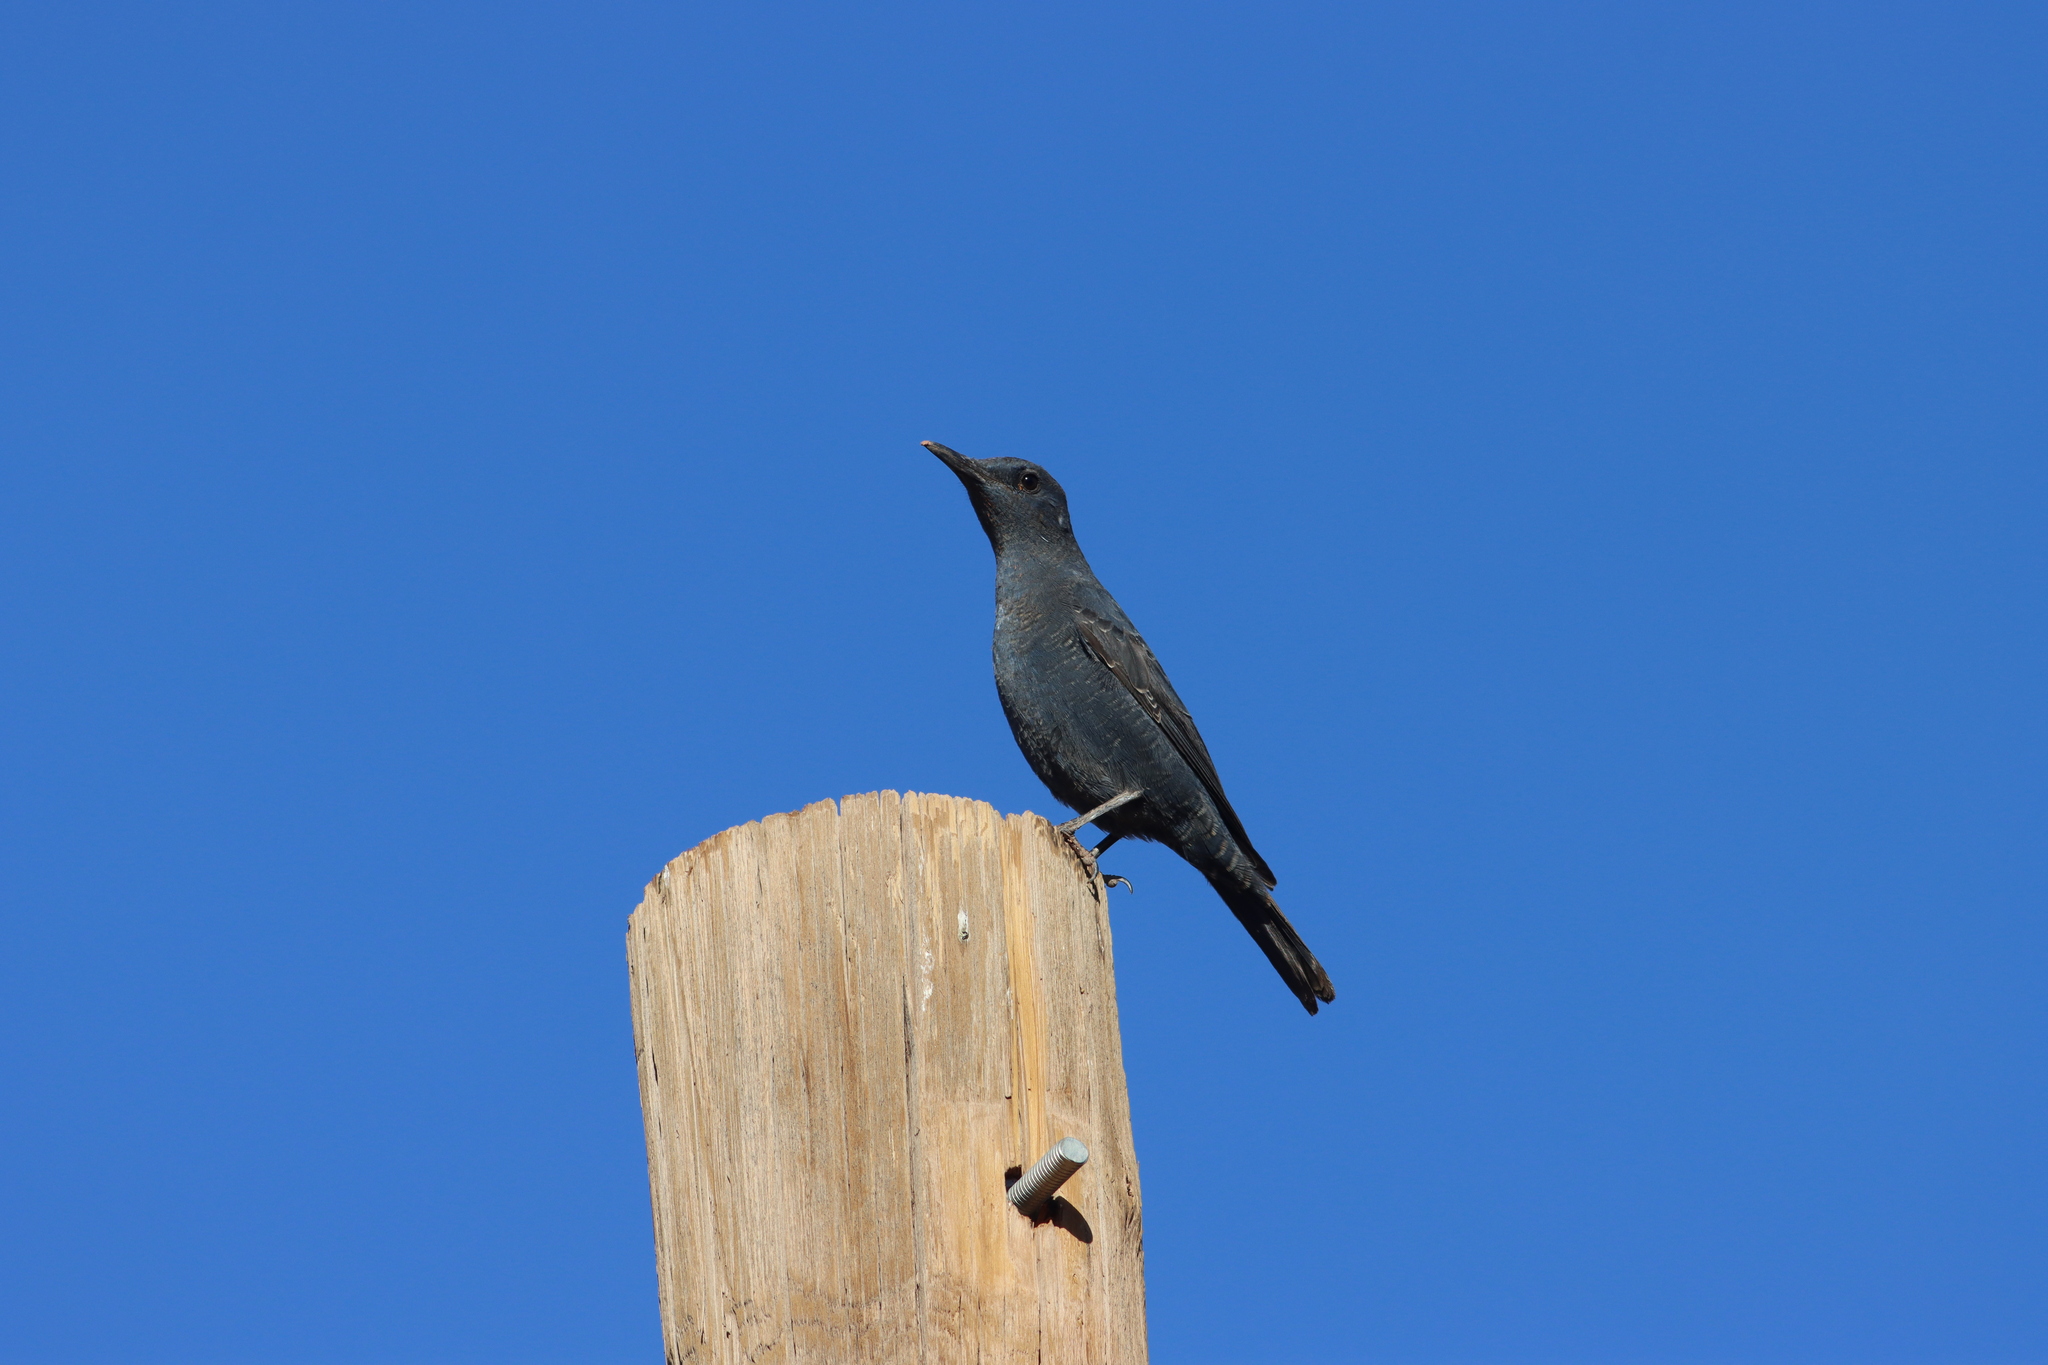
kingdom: Animalia
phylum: Chordata
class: Aves
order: Passeriformes
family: Muscicapidae
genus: Monticola
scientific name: Monticola solitarius
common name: Blue rock thrush
